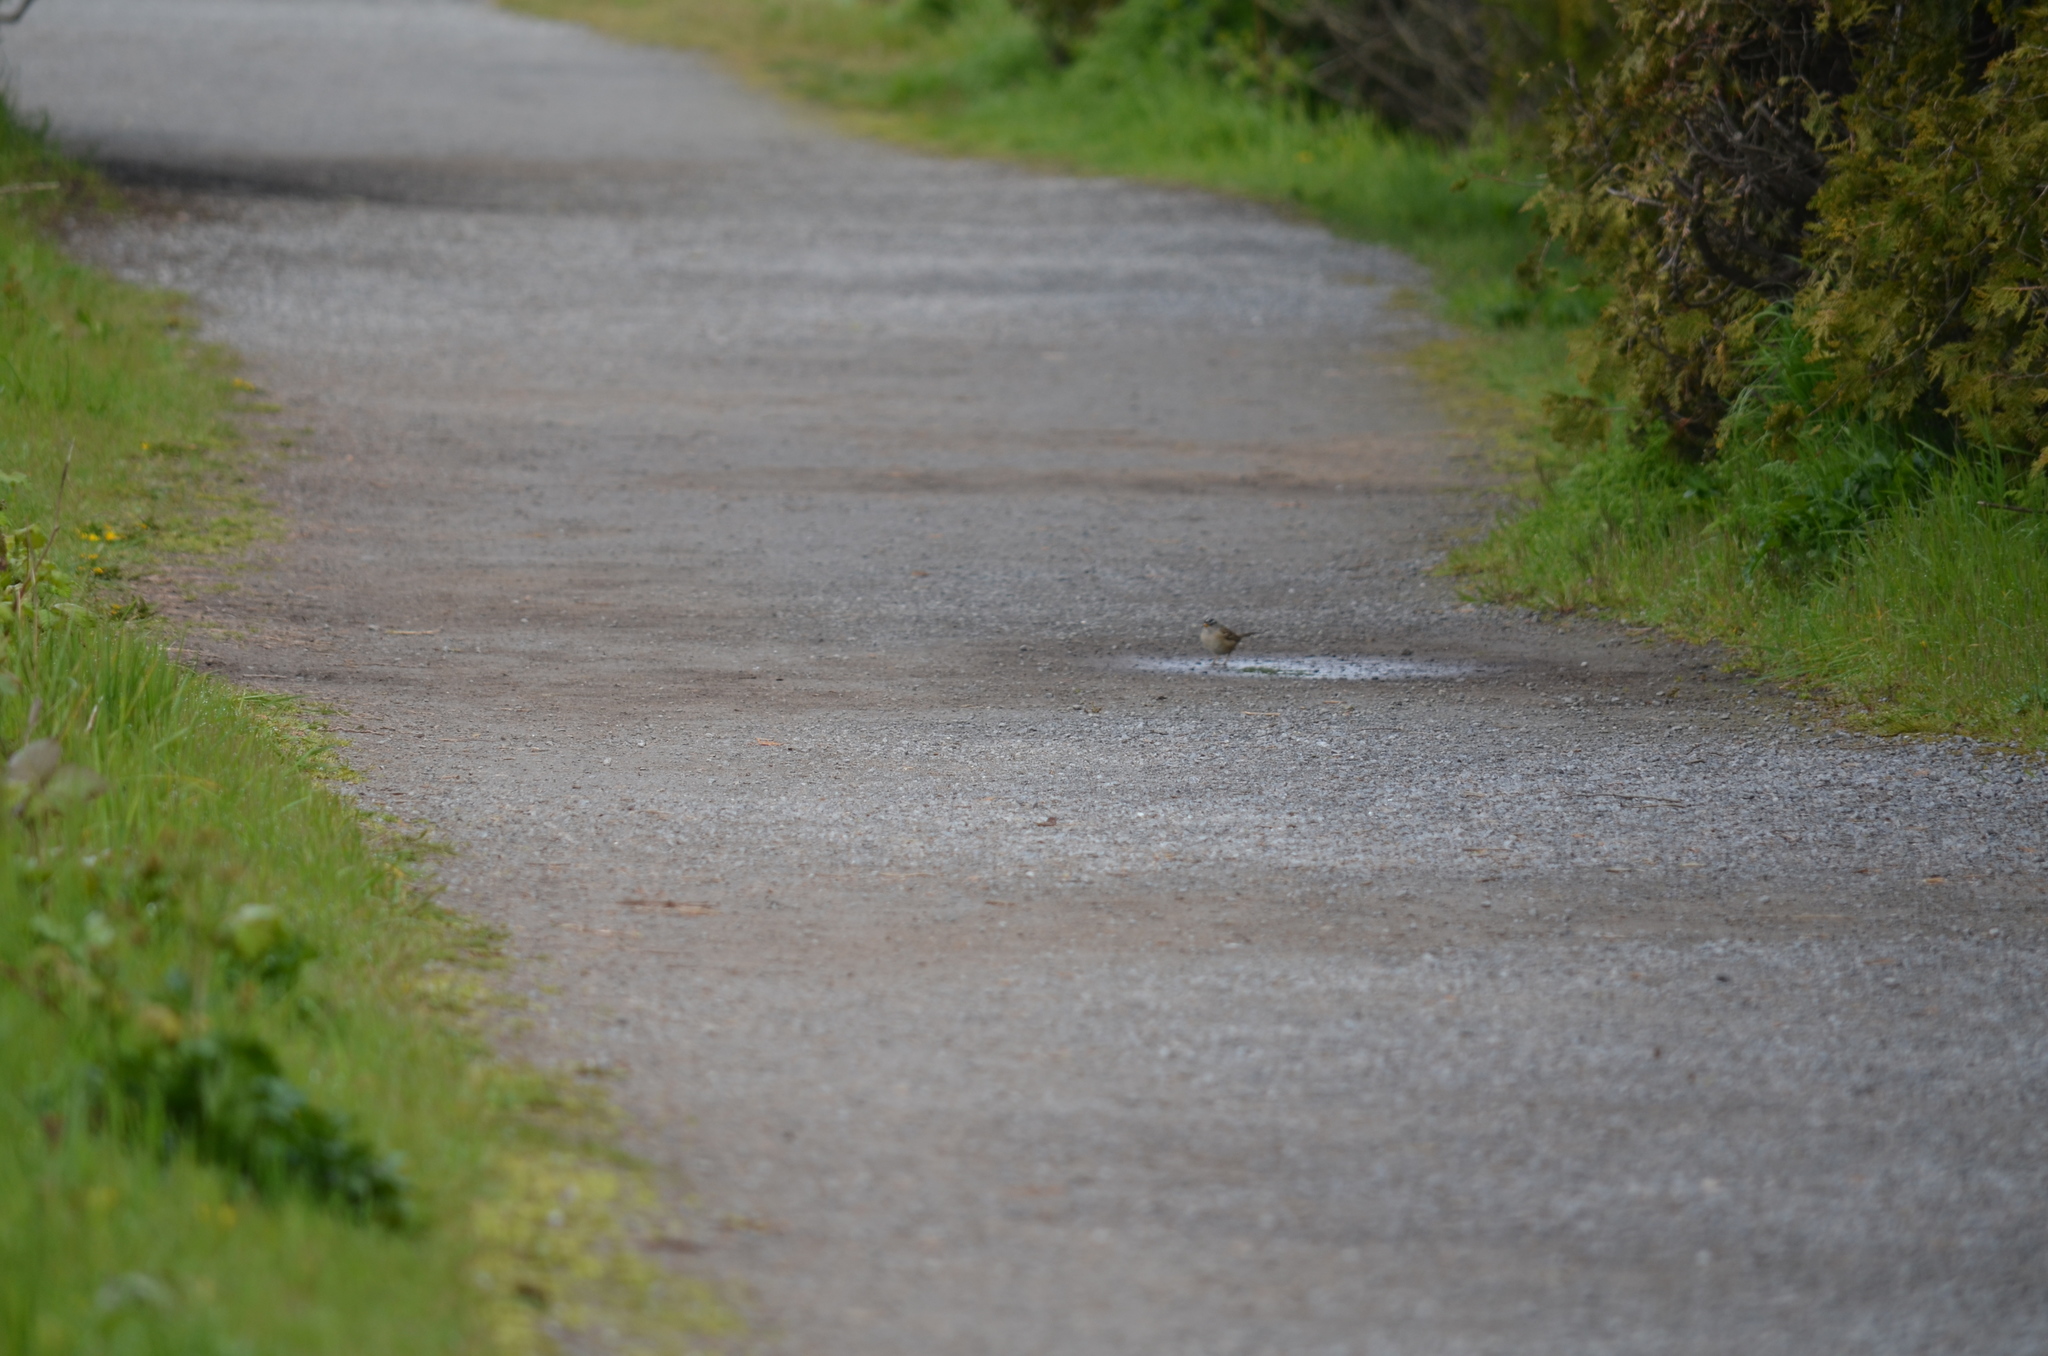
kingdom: Animalia
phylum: Chordata
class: Aves
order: Passeriformes
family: Passerellidae
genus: Zonotrichia
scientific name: Zonotrichia leucophrys
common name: White-crowned sparrow
